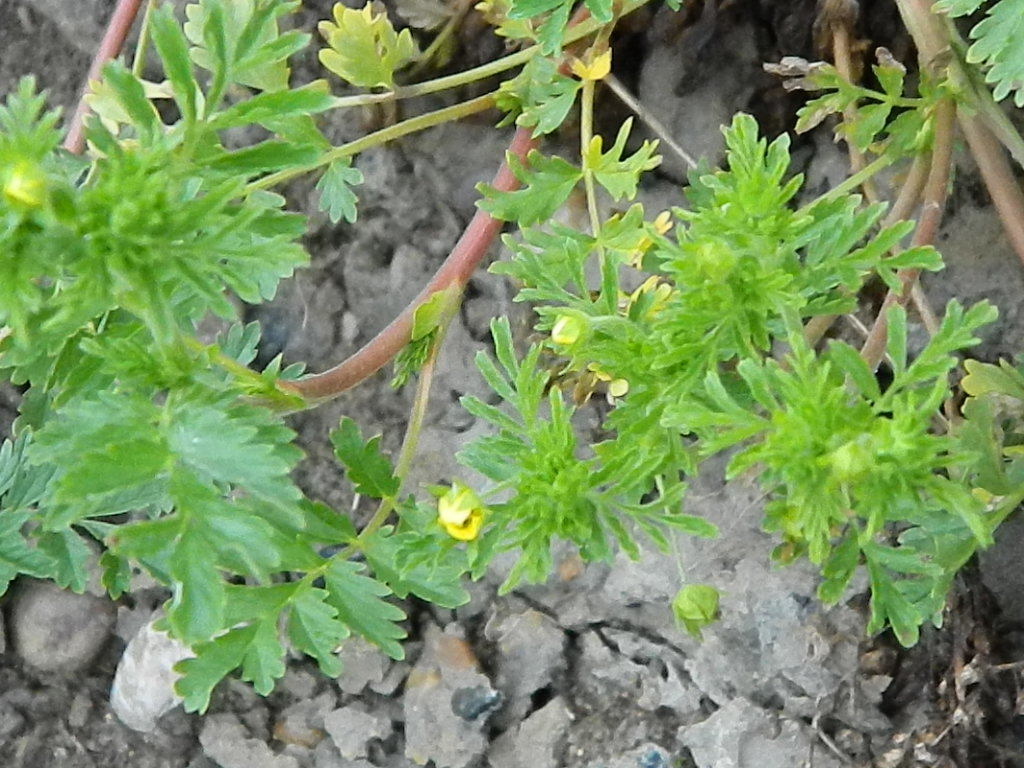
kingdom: Plantae
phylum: Tracheophyta
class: Magnoliopsida
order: Rosales
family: Rosaceae
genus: Potentilla
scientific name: Potentilla supina
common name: Prostrate cinquefoil
